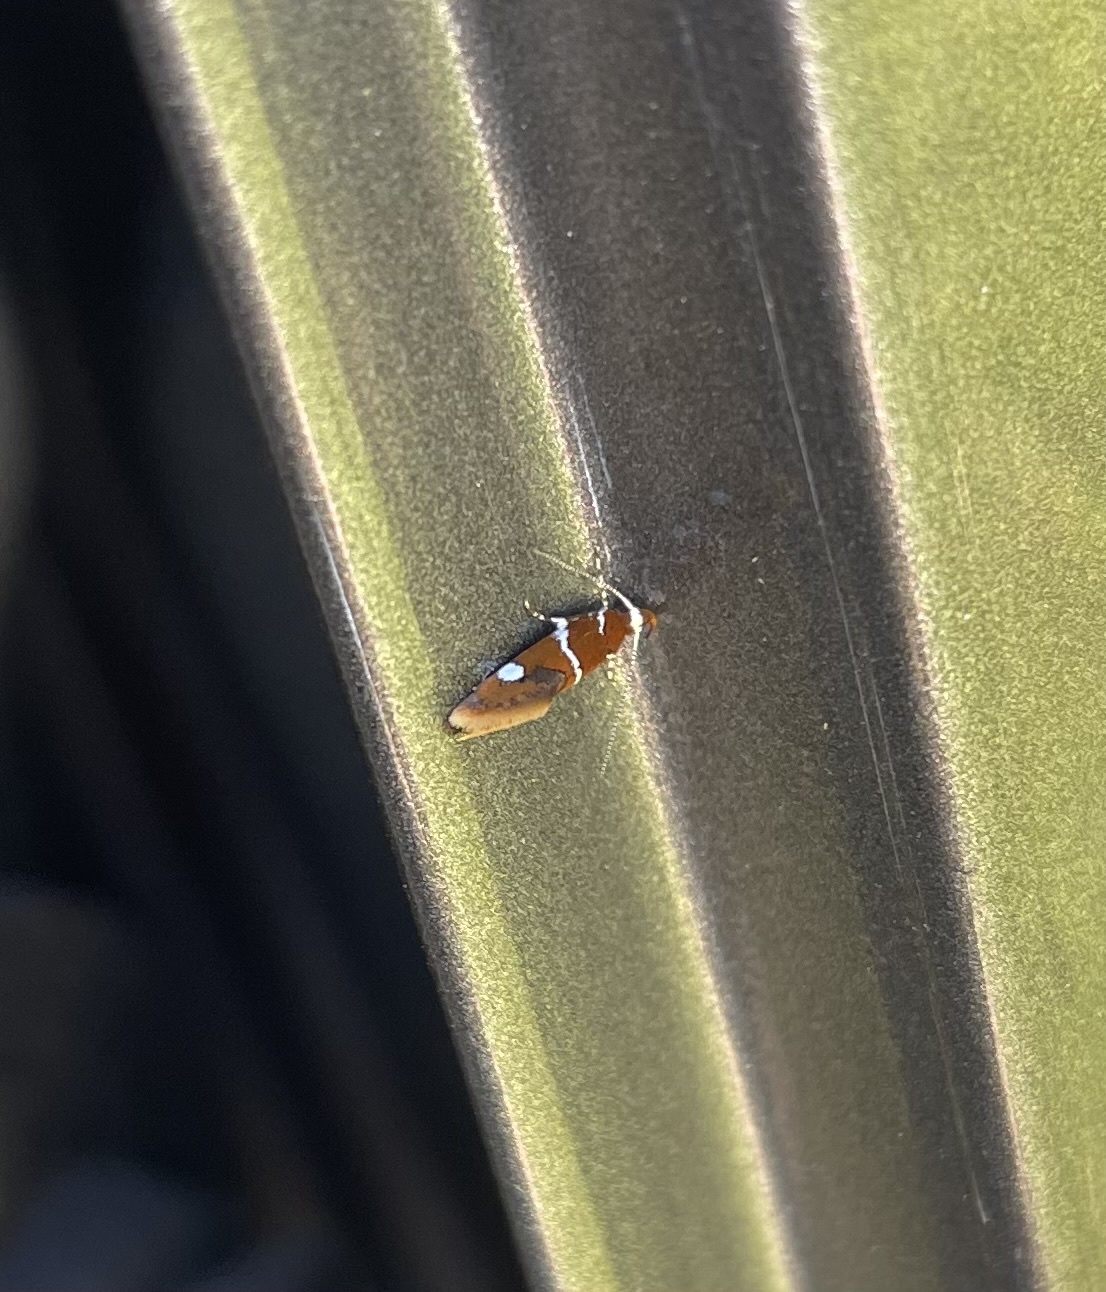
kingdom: Animalia
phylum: Arthropoda
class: Insecta
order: Lepidoptera
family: Oecophoridae
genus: Promalactis
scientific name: Promalactis suzukiella
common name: Moth
